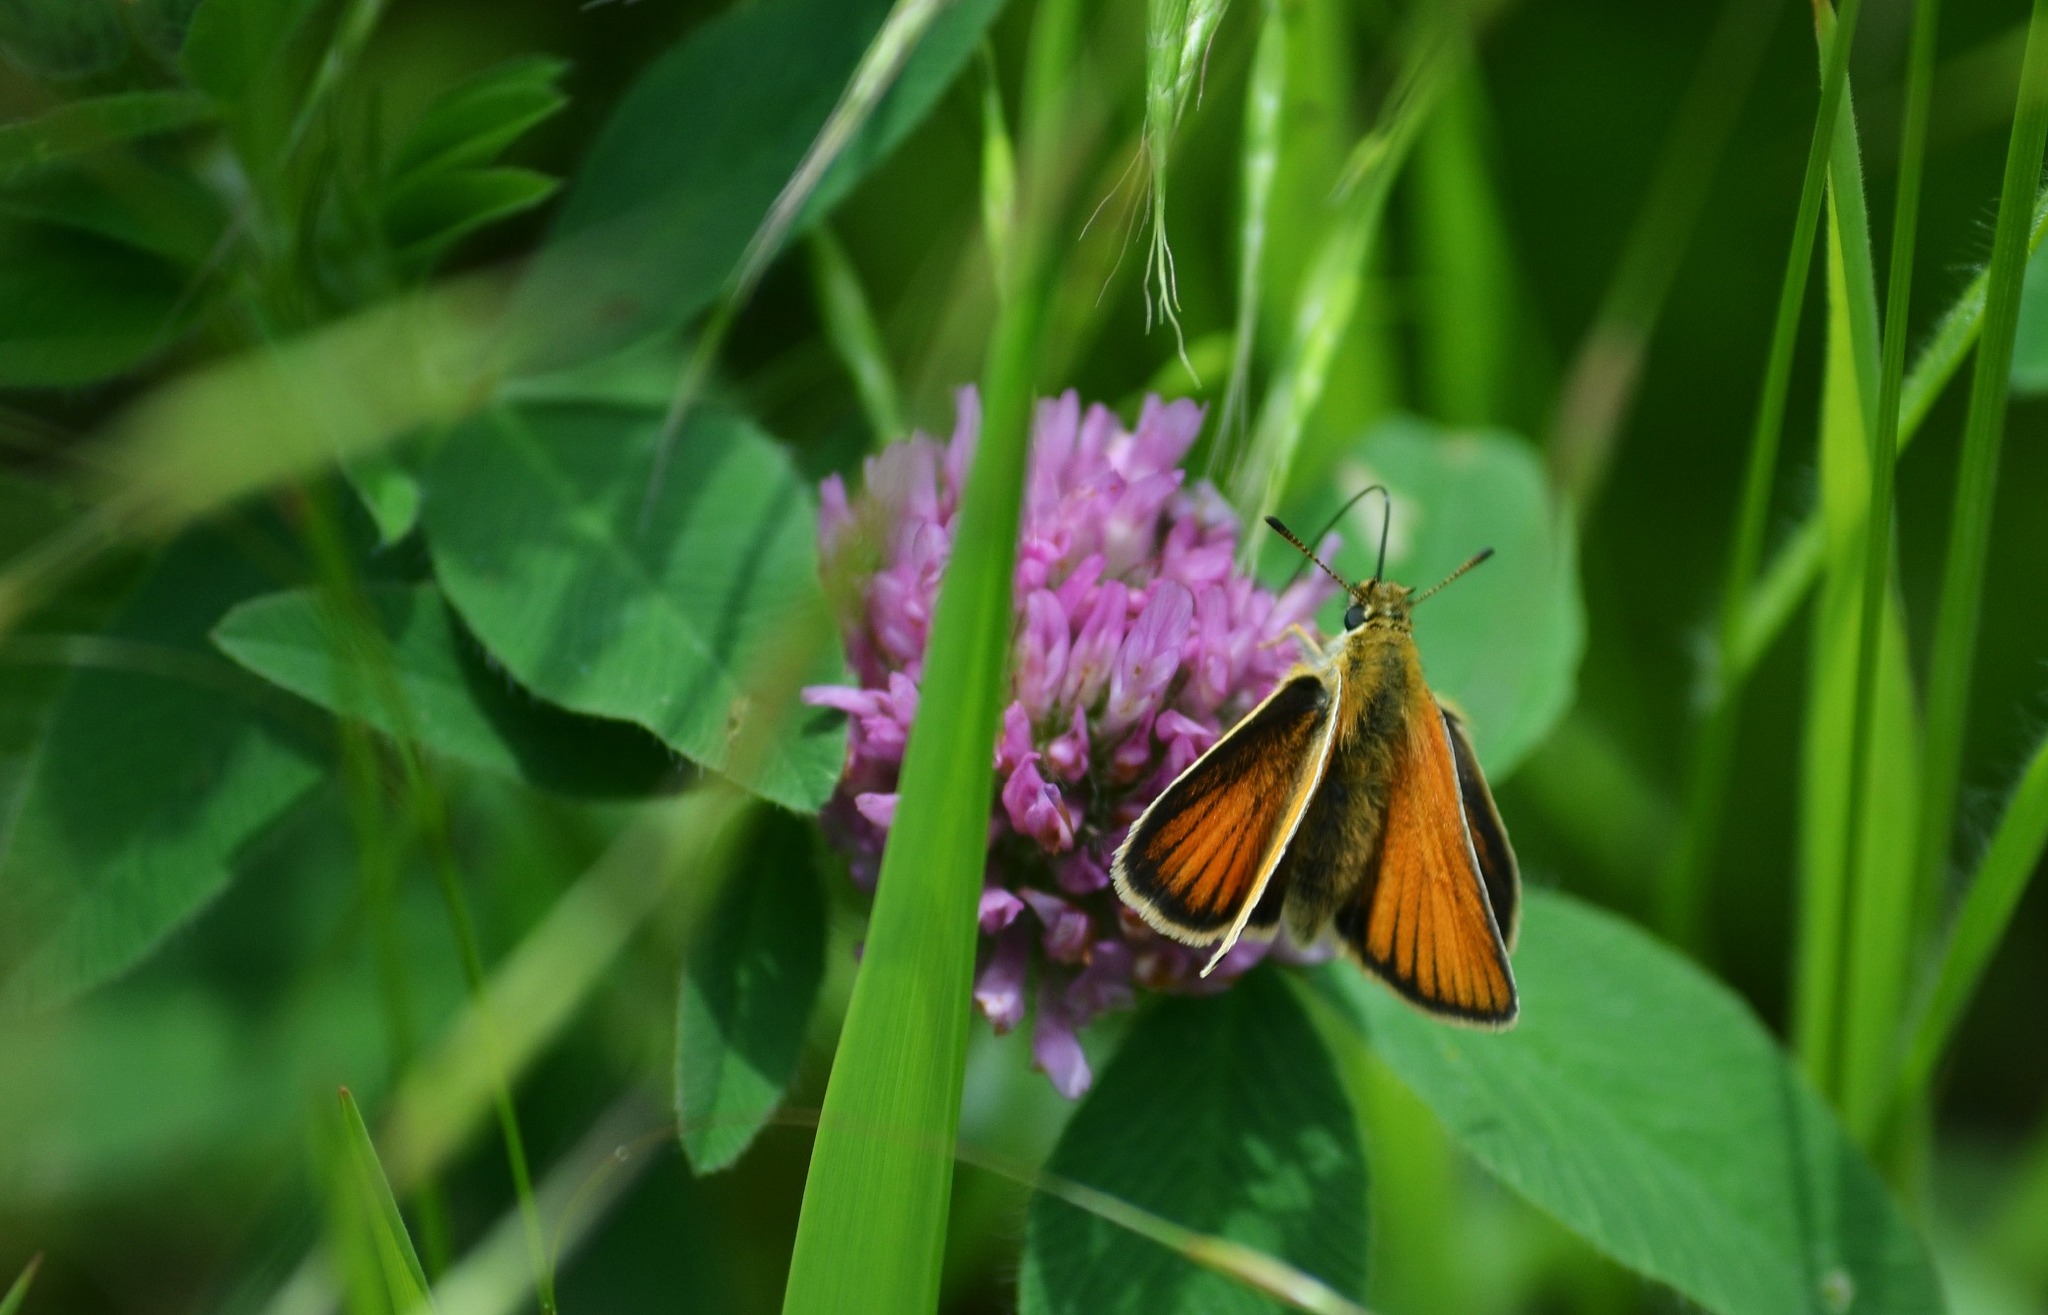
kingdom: Animalia
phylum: Arthropoda
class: Insecta
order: Lepidoptera
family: Hesperiidae
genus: Thymelicus
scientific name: Thymelicus lineola
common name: Essex skipper
